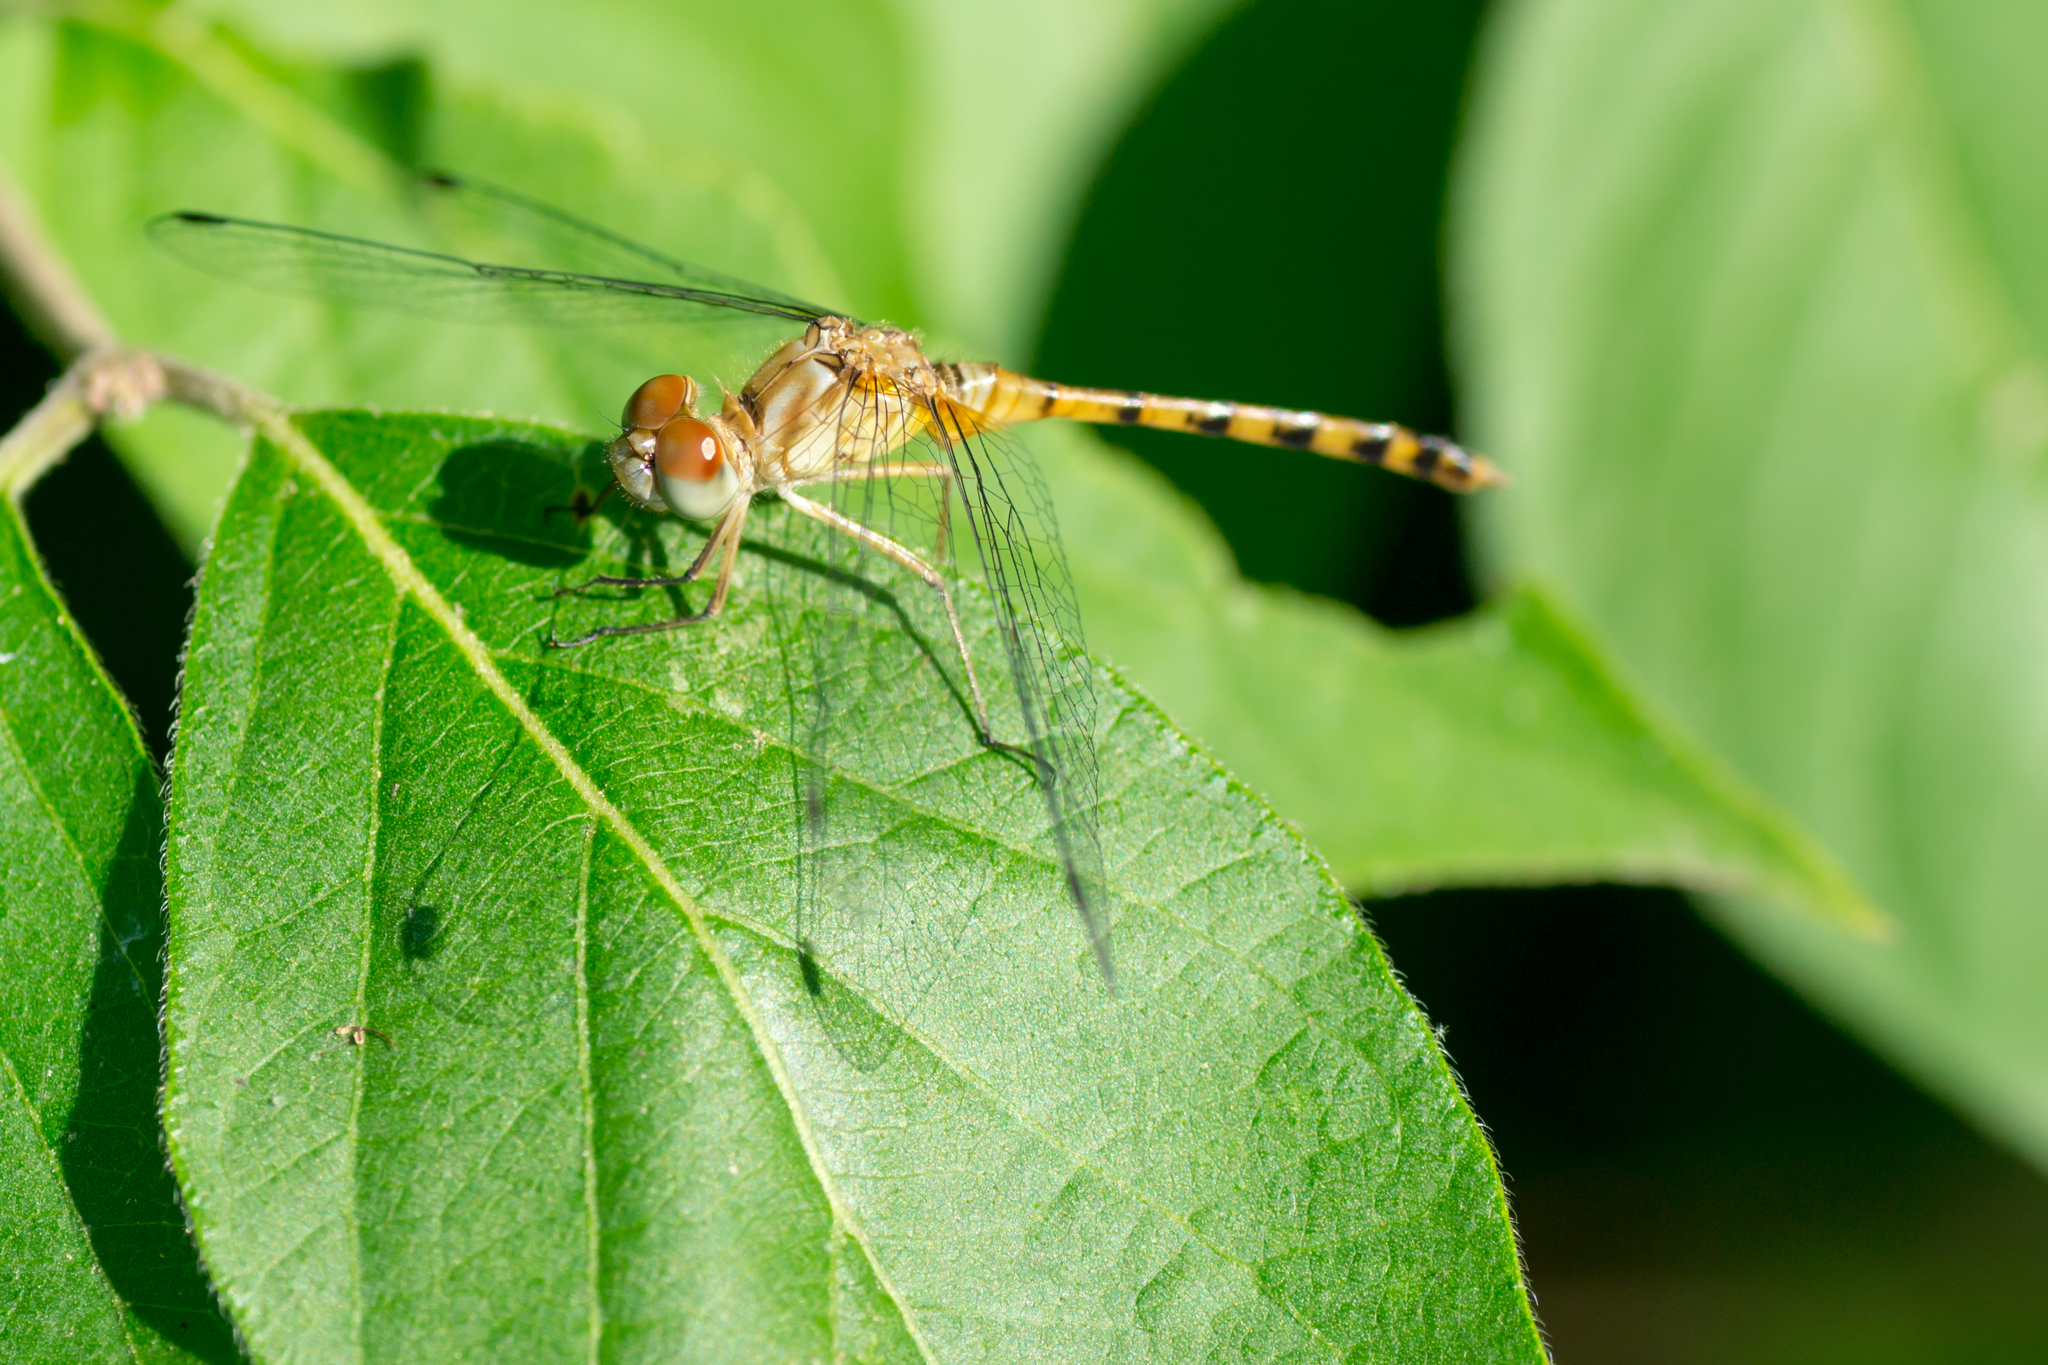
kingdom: Animalia
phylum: Arthropoda
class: Insecta
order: Odonata
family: Libellulidae
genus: Sympetrum
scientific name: Sympetrum ambiguum
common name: Blue-faced meadowhawk
